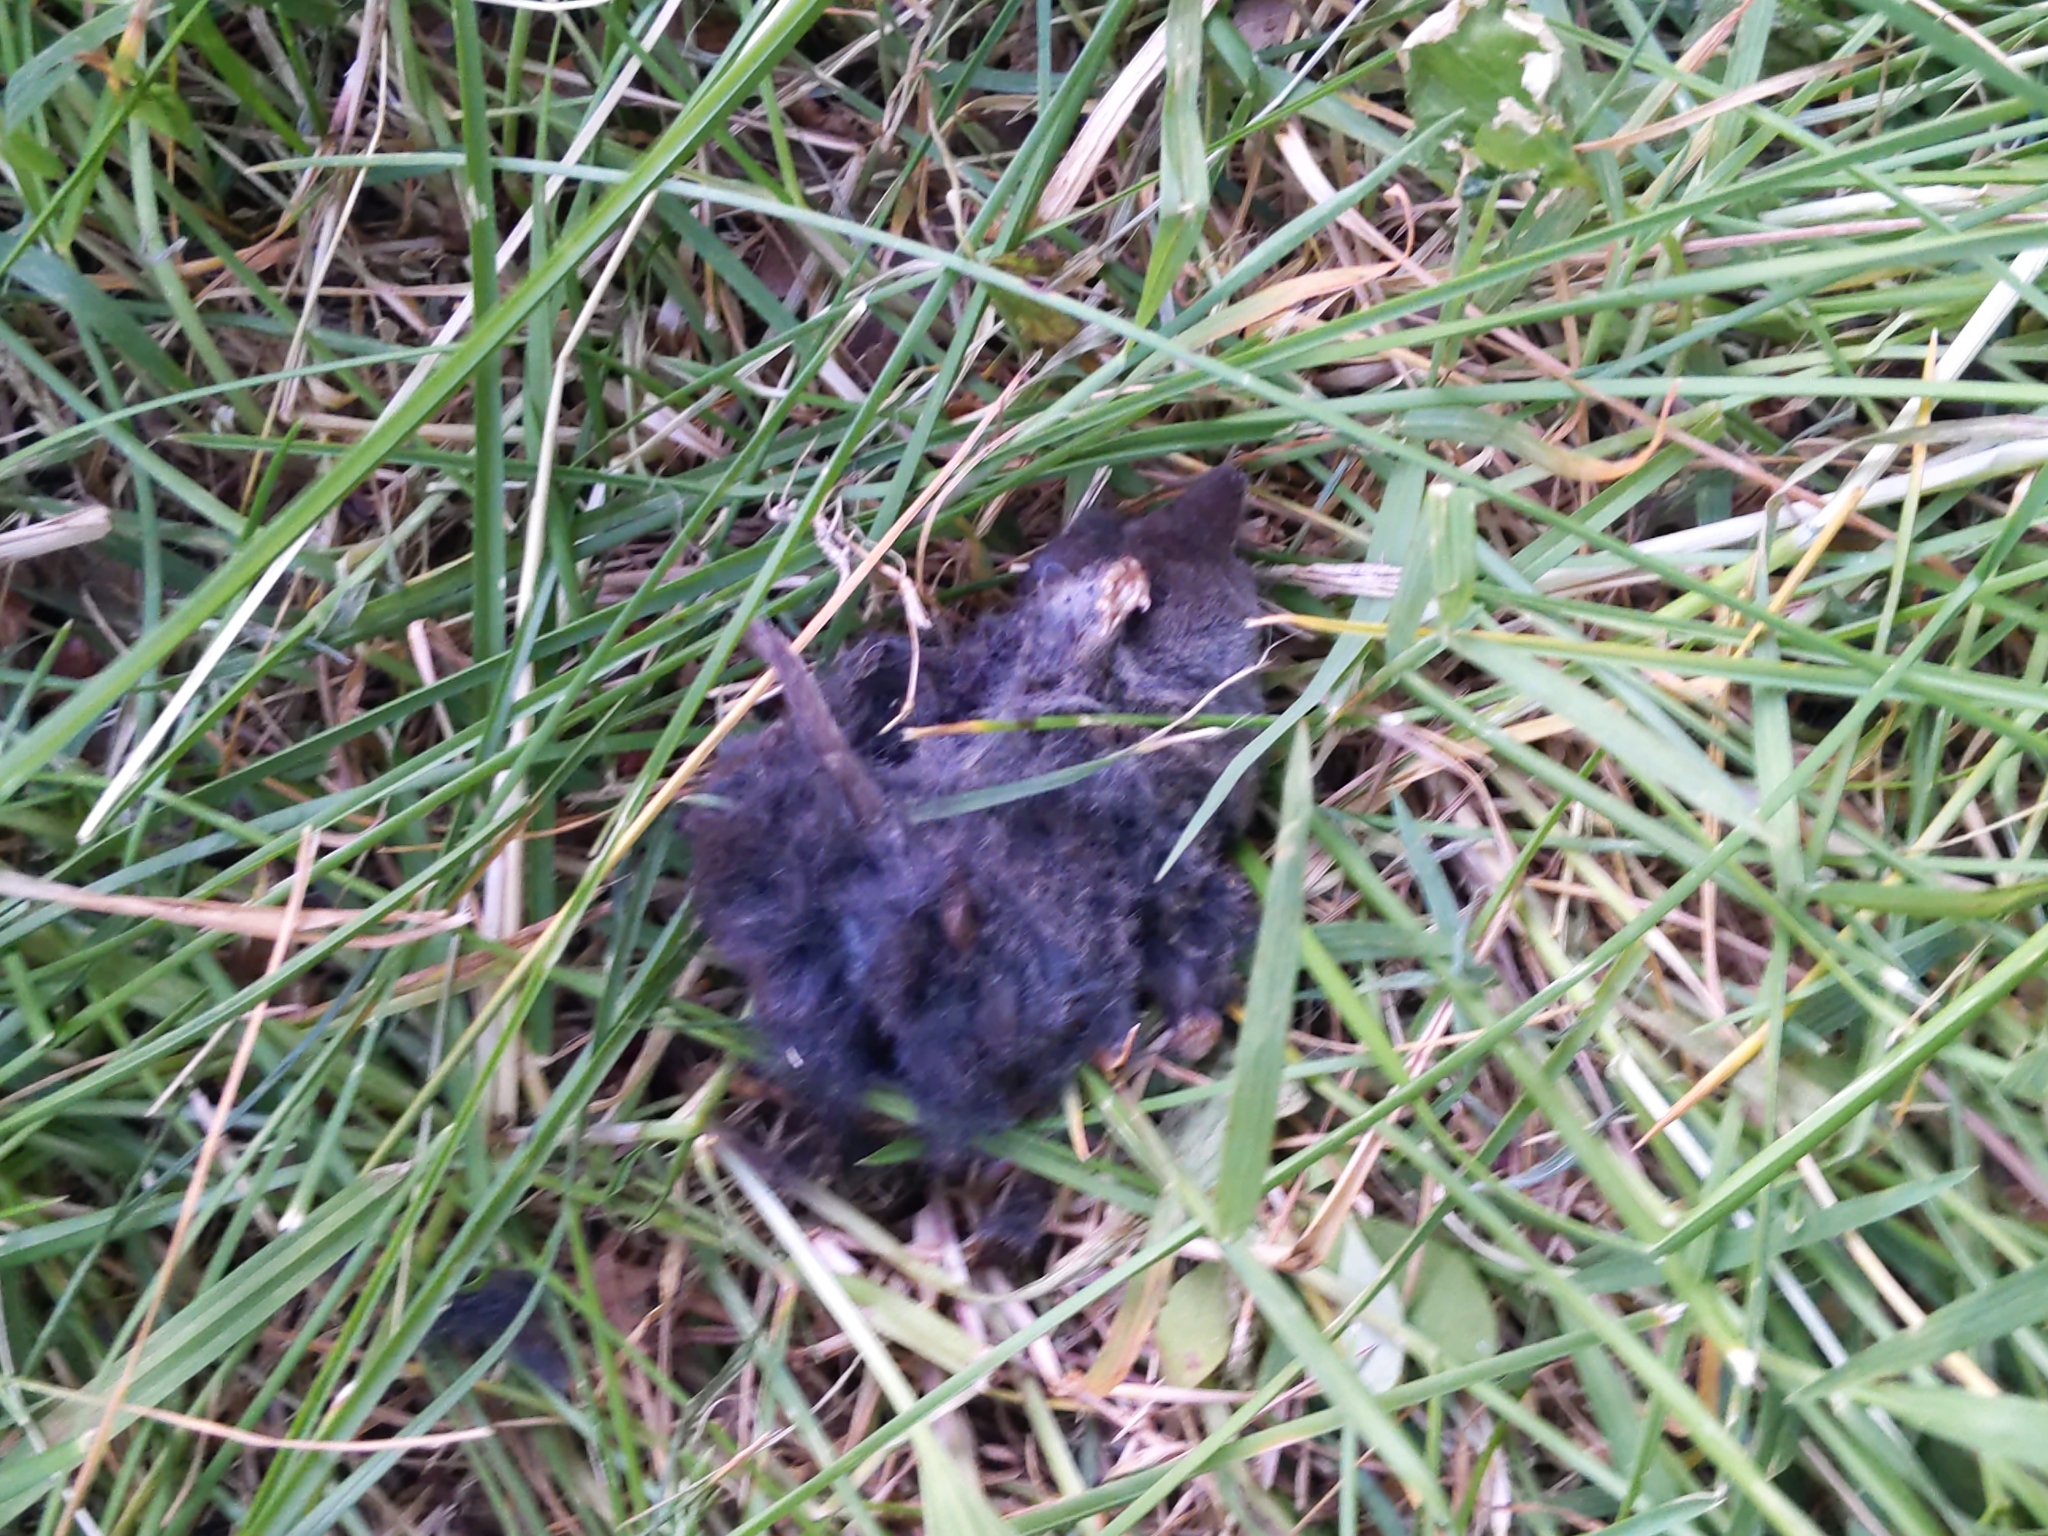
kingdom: Animalia
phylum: Chordata
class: Mammalia
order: Soricomorpha
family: Soricidae
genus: Blarina
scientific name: Blarina brevicauda
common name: Northern short-tailed shrew
